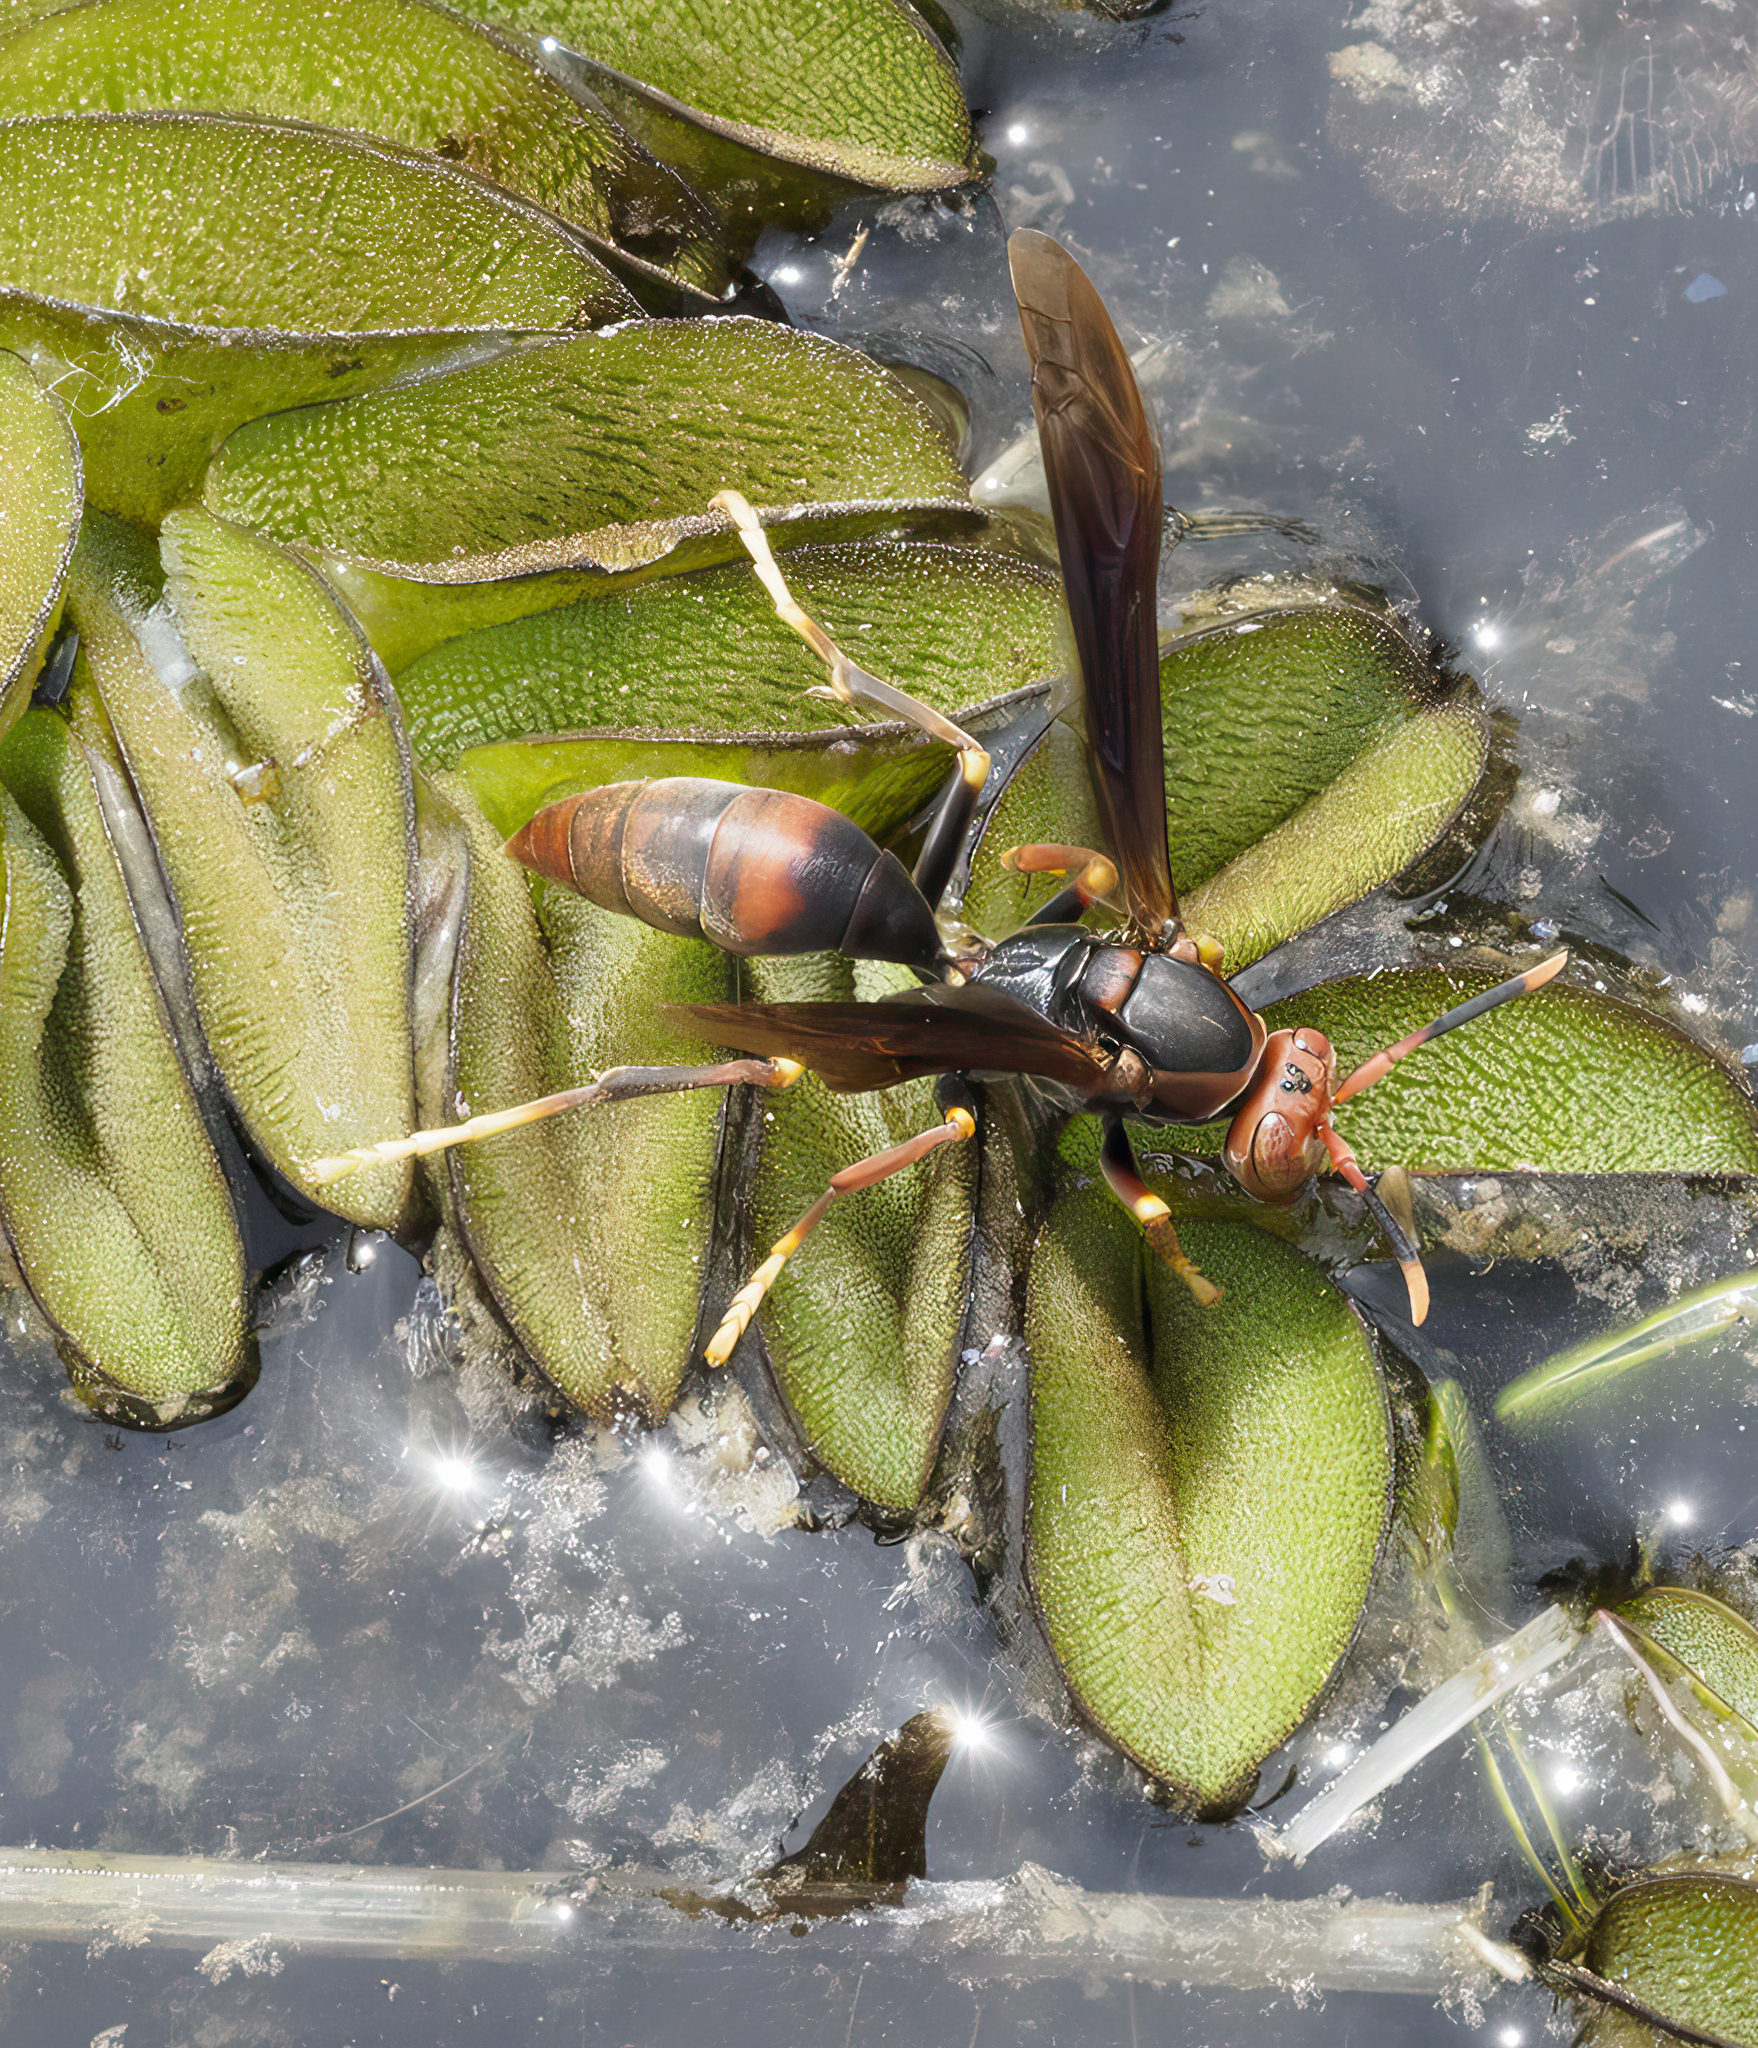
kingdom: Animalia
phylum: Arthropoda
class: Insecta
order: Hymenoptera
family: Pompilidae
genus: Aphanilopterus
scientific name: Aphanilopterus
